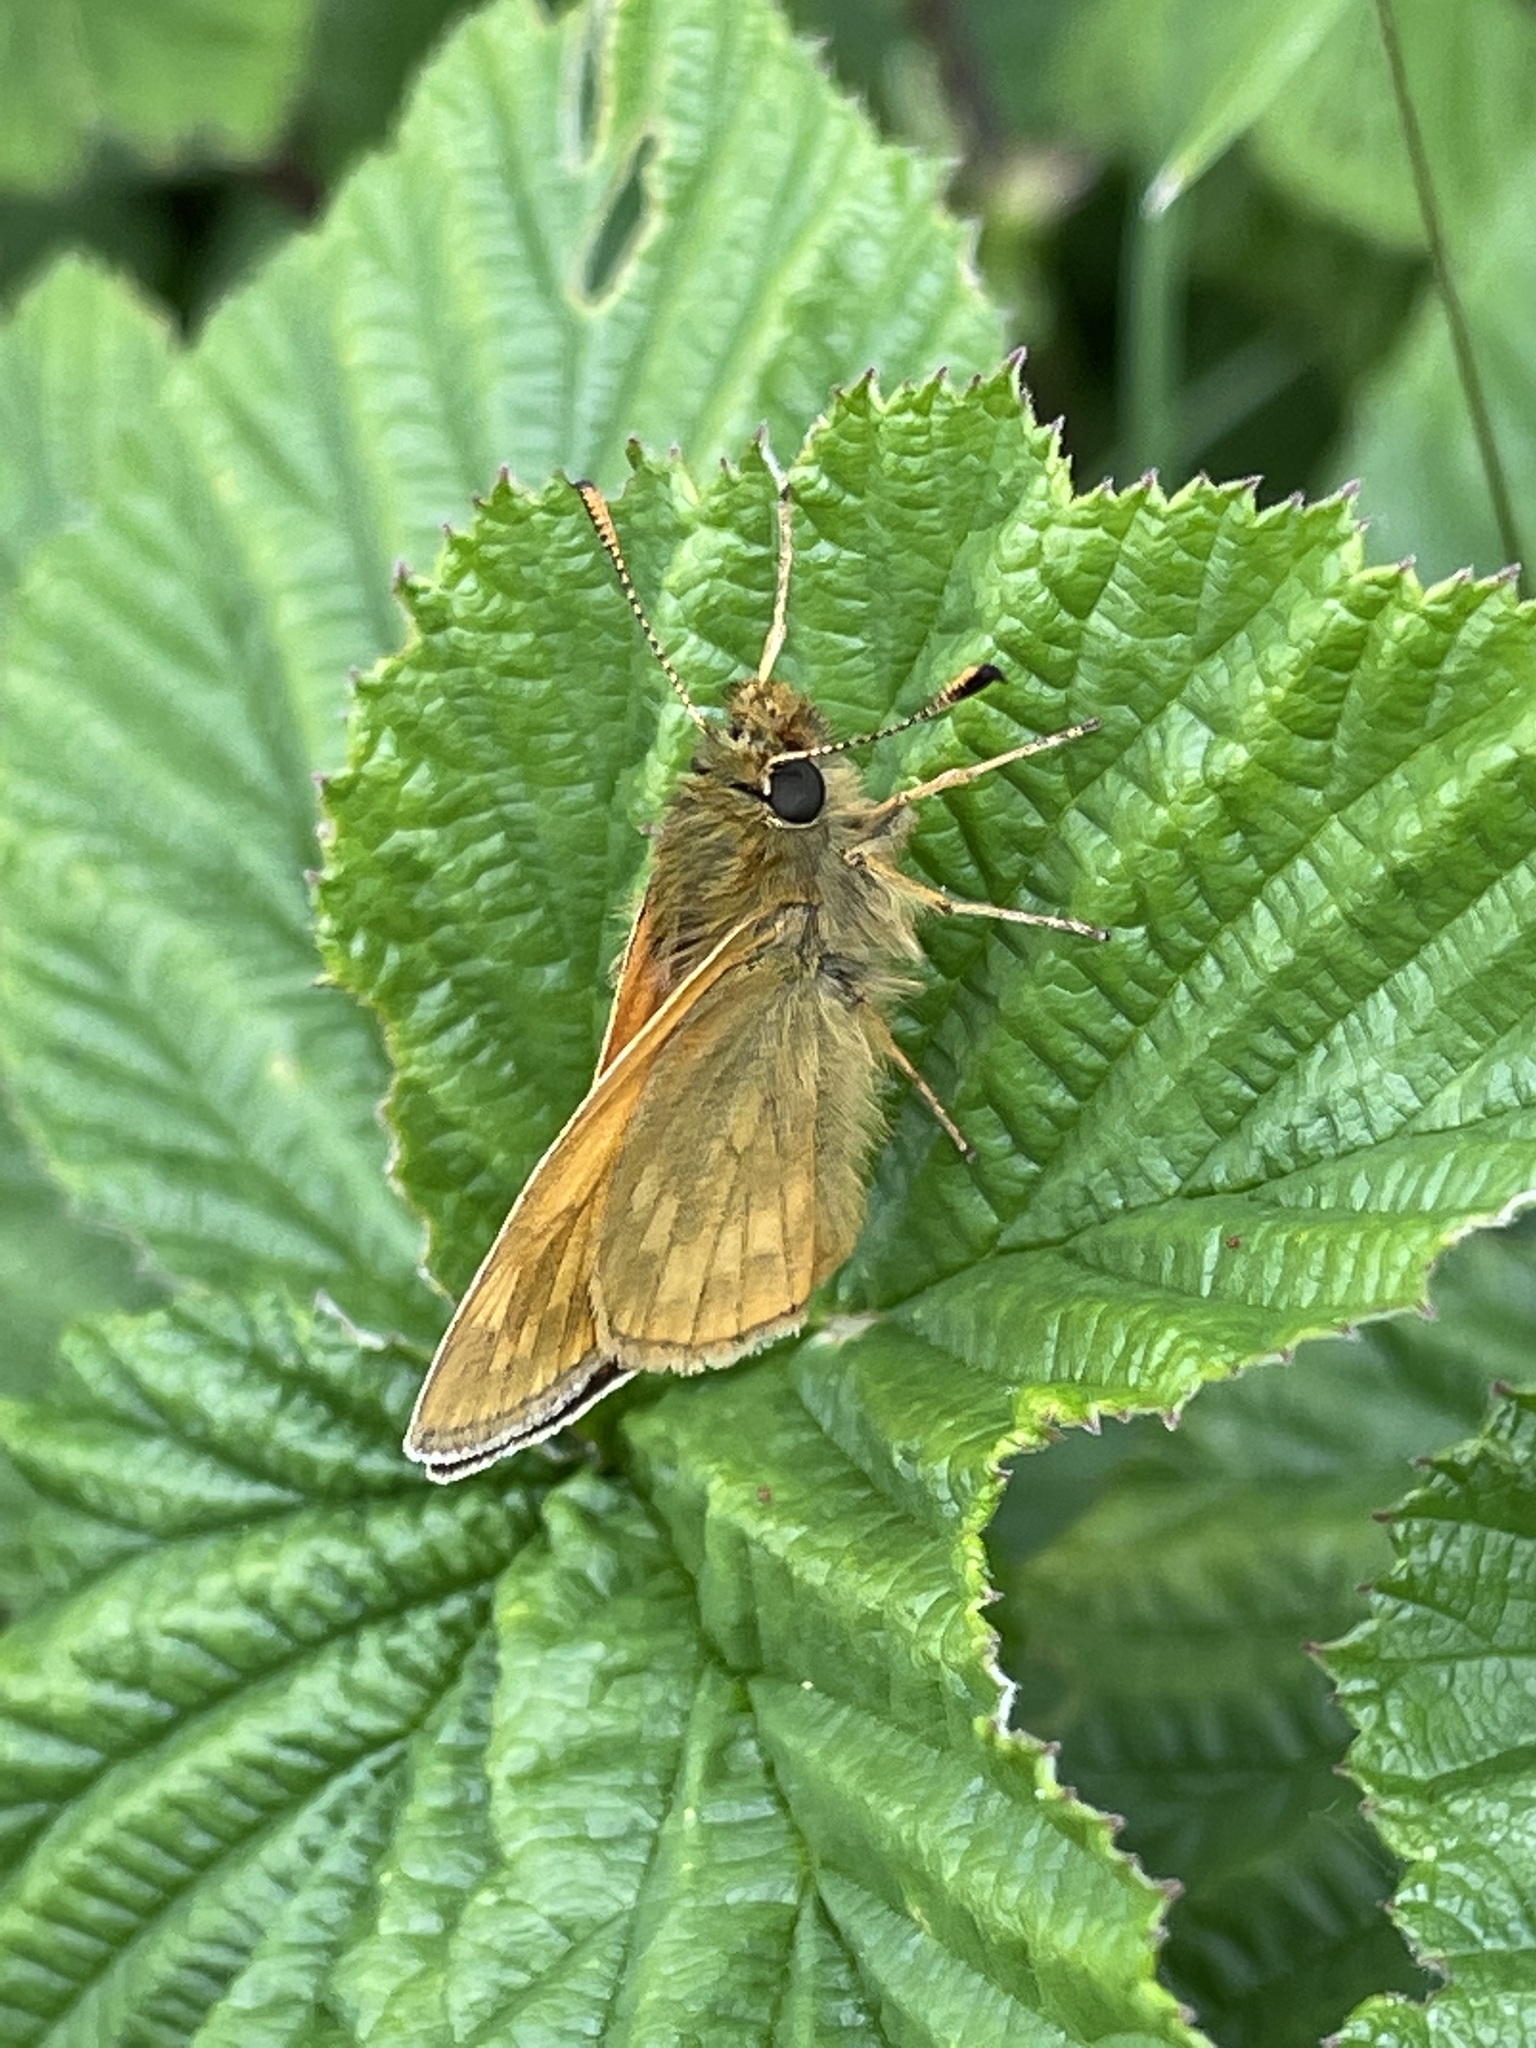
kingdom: Animalia
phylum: Arthropoda
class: Insecta
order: Lepidoptera
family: Hesperiidae
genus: Ochlodes
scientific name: Ochlodes venata
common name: Large skipper
